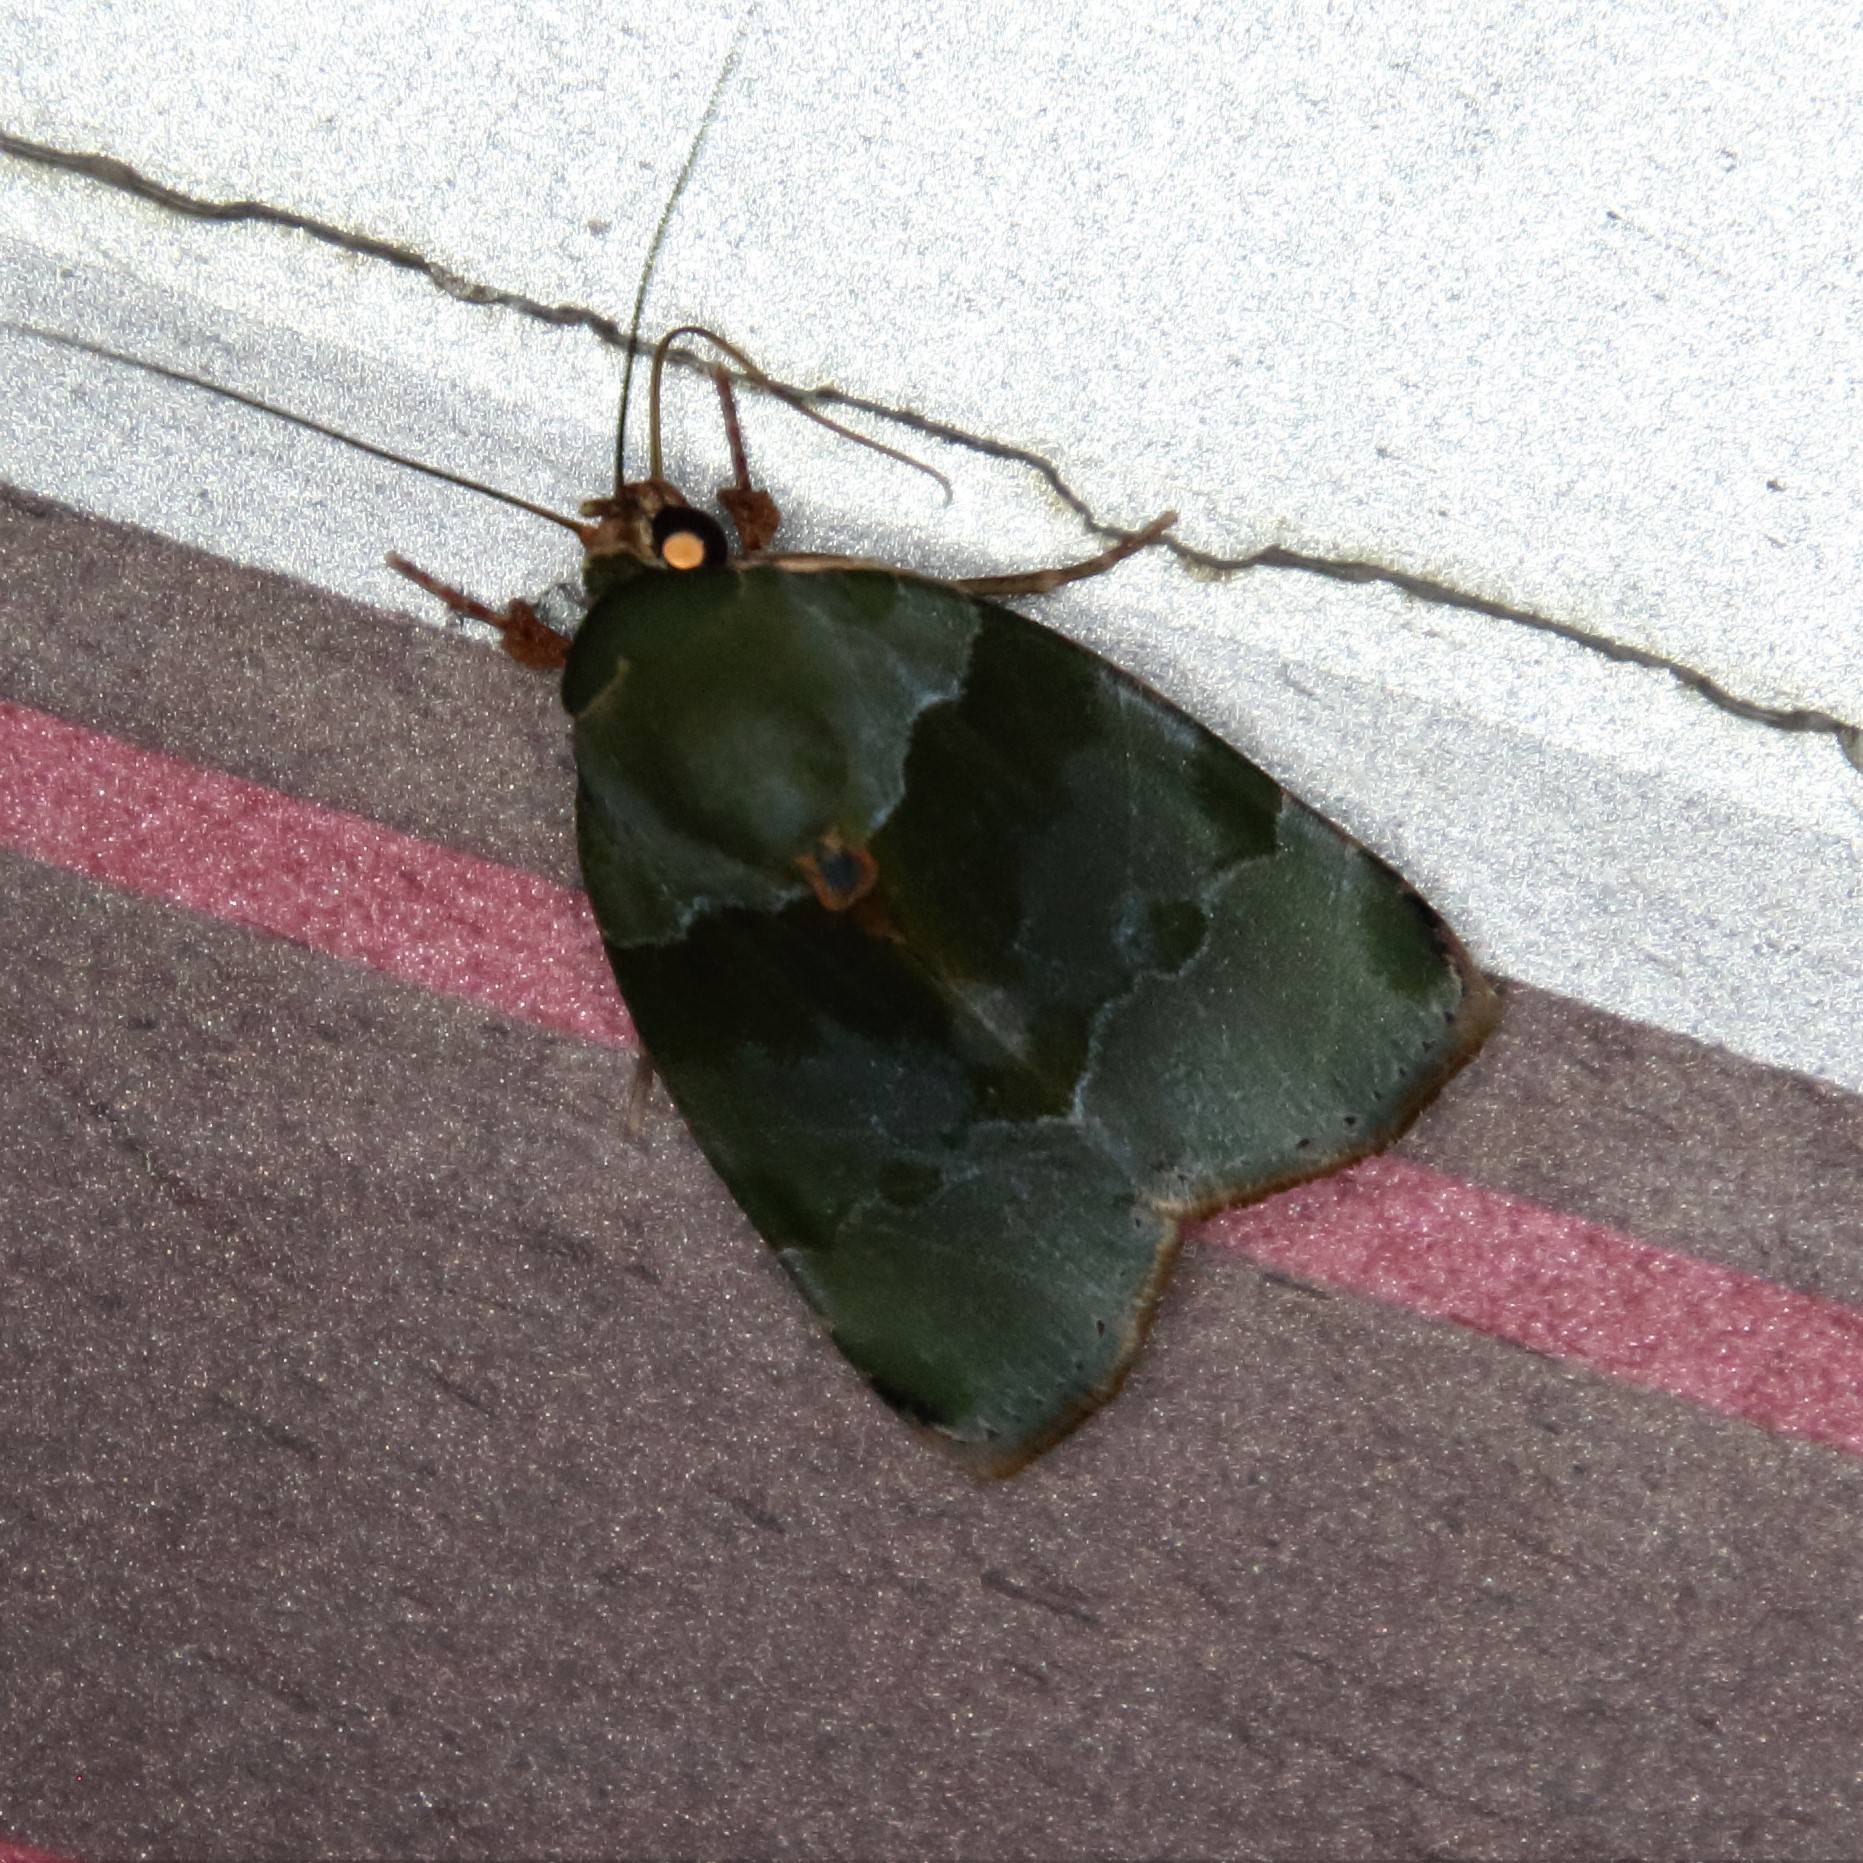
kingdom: Animalia
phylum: Arthropoda
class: Insecta
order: Lepidoptera
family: Nolidae
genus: Lasiolopha
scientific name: Lasiolopha saturata
